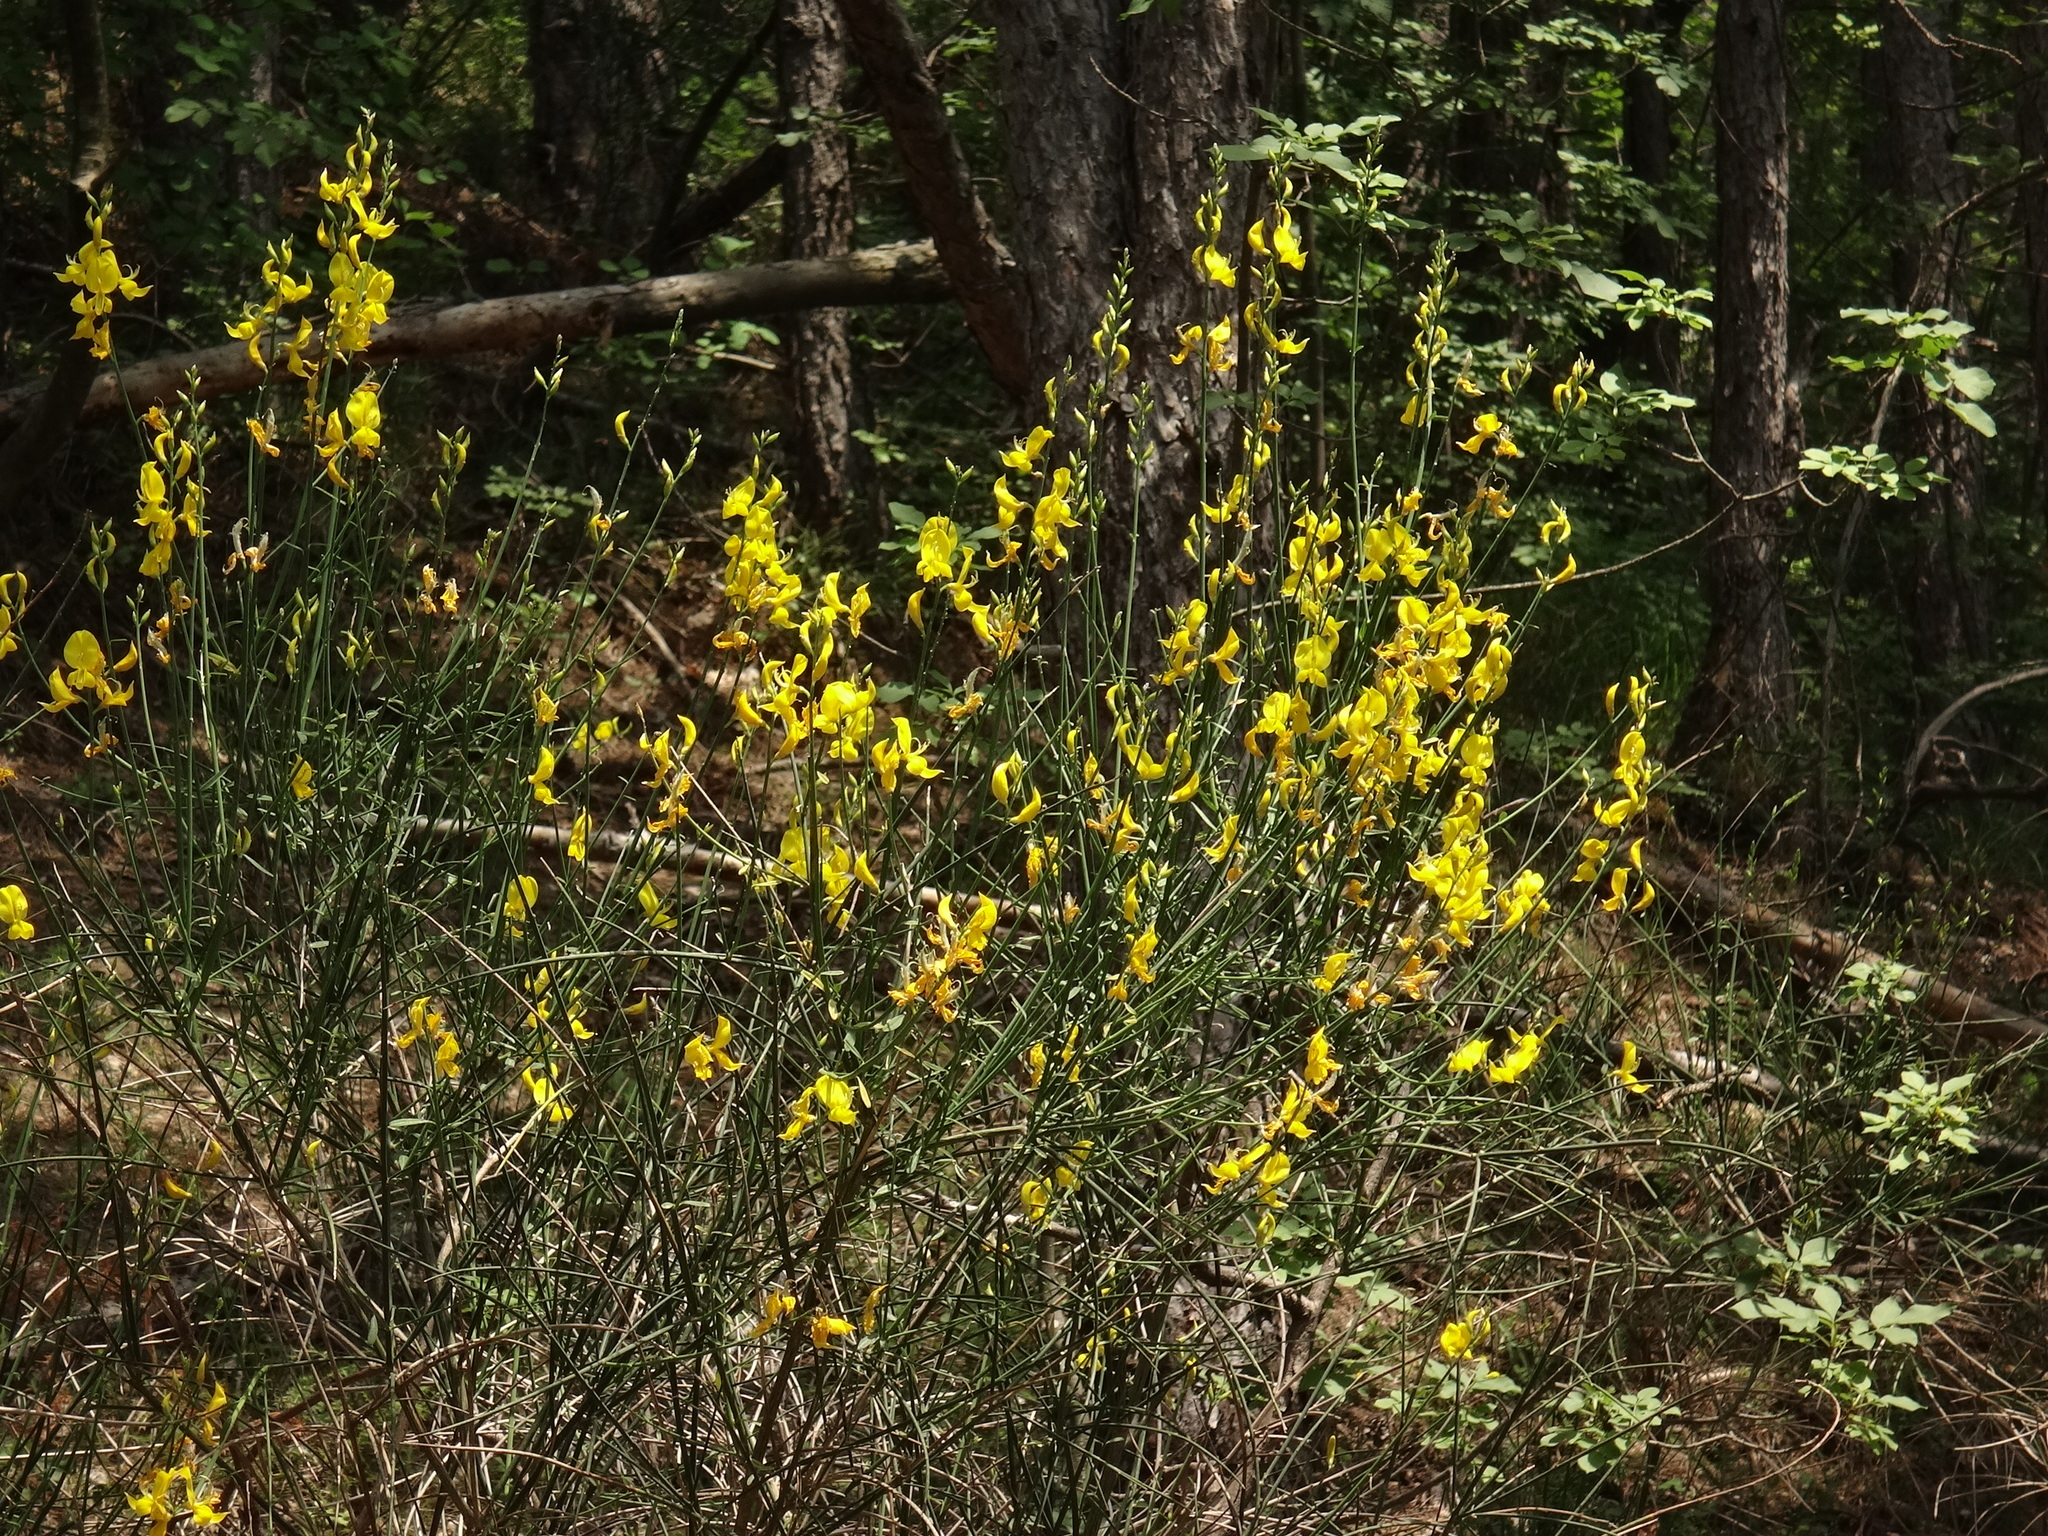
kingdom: Plantae
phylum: Tracheophyta
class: Magnoliopsida
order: Fabales
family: Fabaceae
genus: Spartium
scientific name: Spartium junceum
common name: Spanish broom
